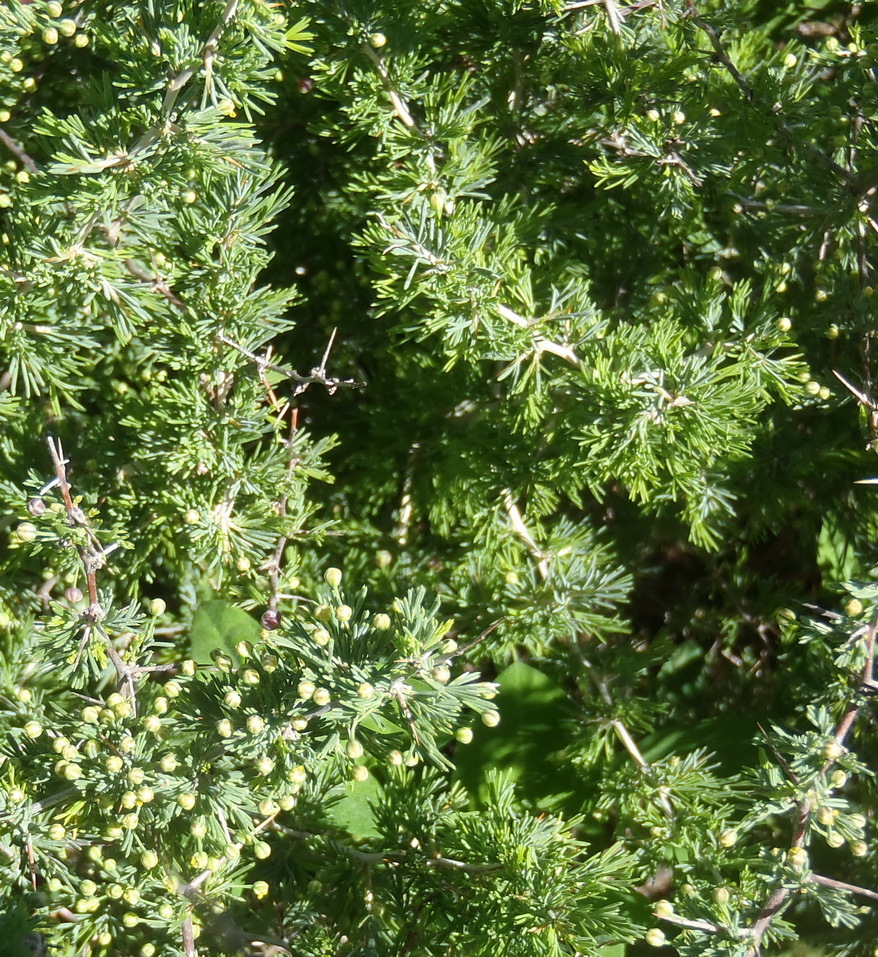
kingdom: Plantae
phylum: Tracheophyta
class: Liliopsida
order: Asparagales
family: Asparagaceae
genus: Asparagus
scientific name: Asparagus suaveolens
